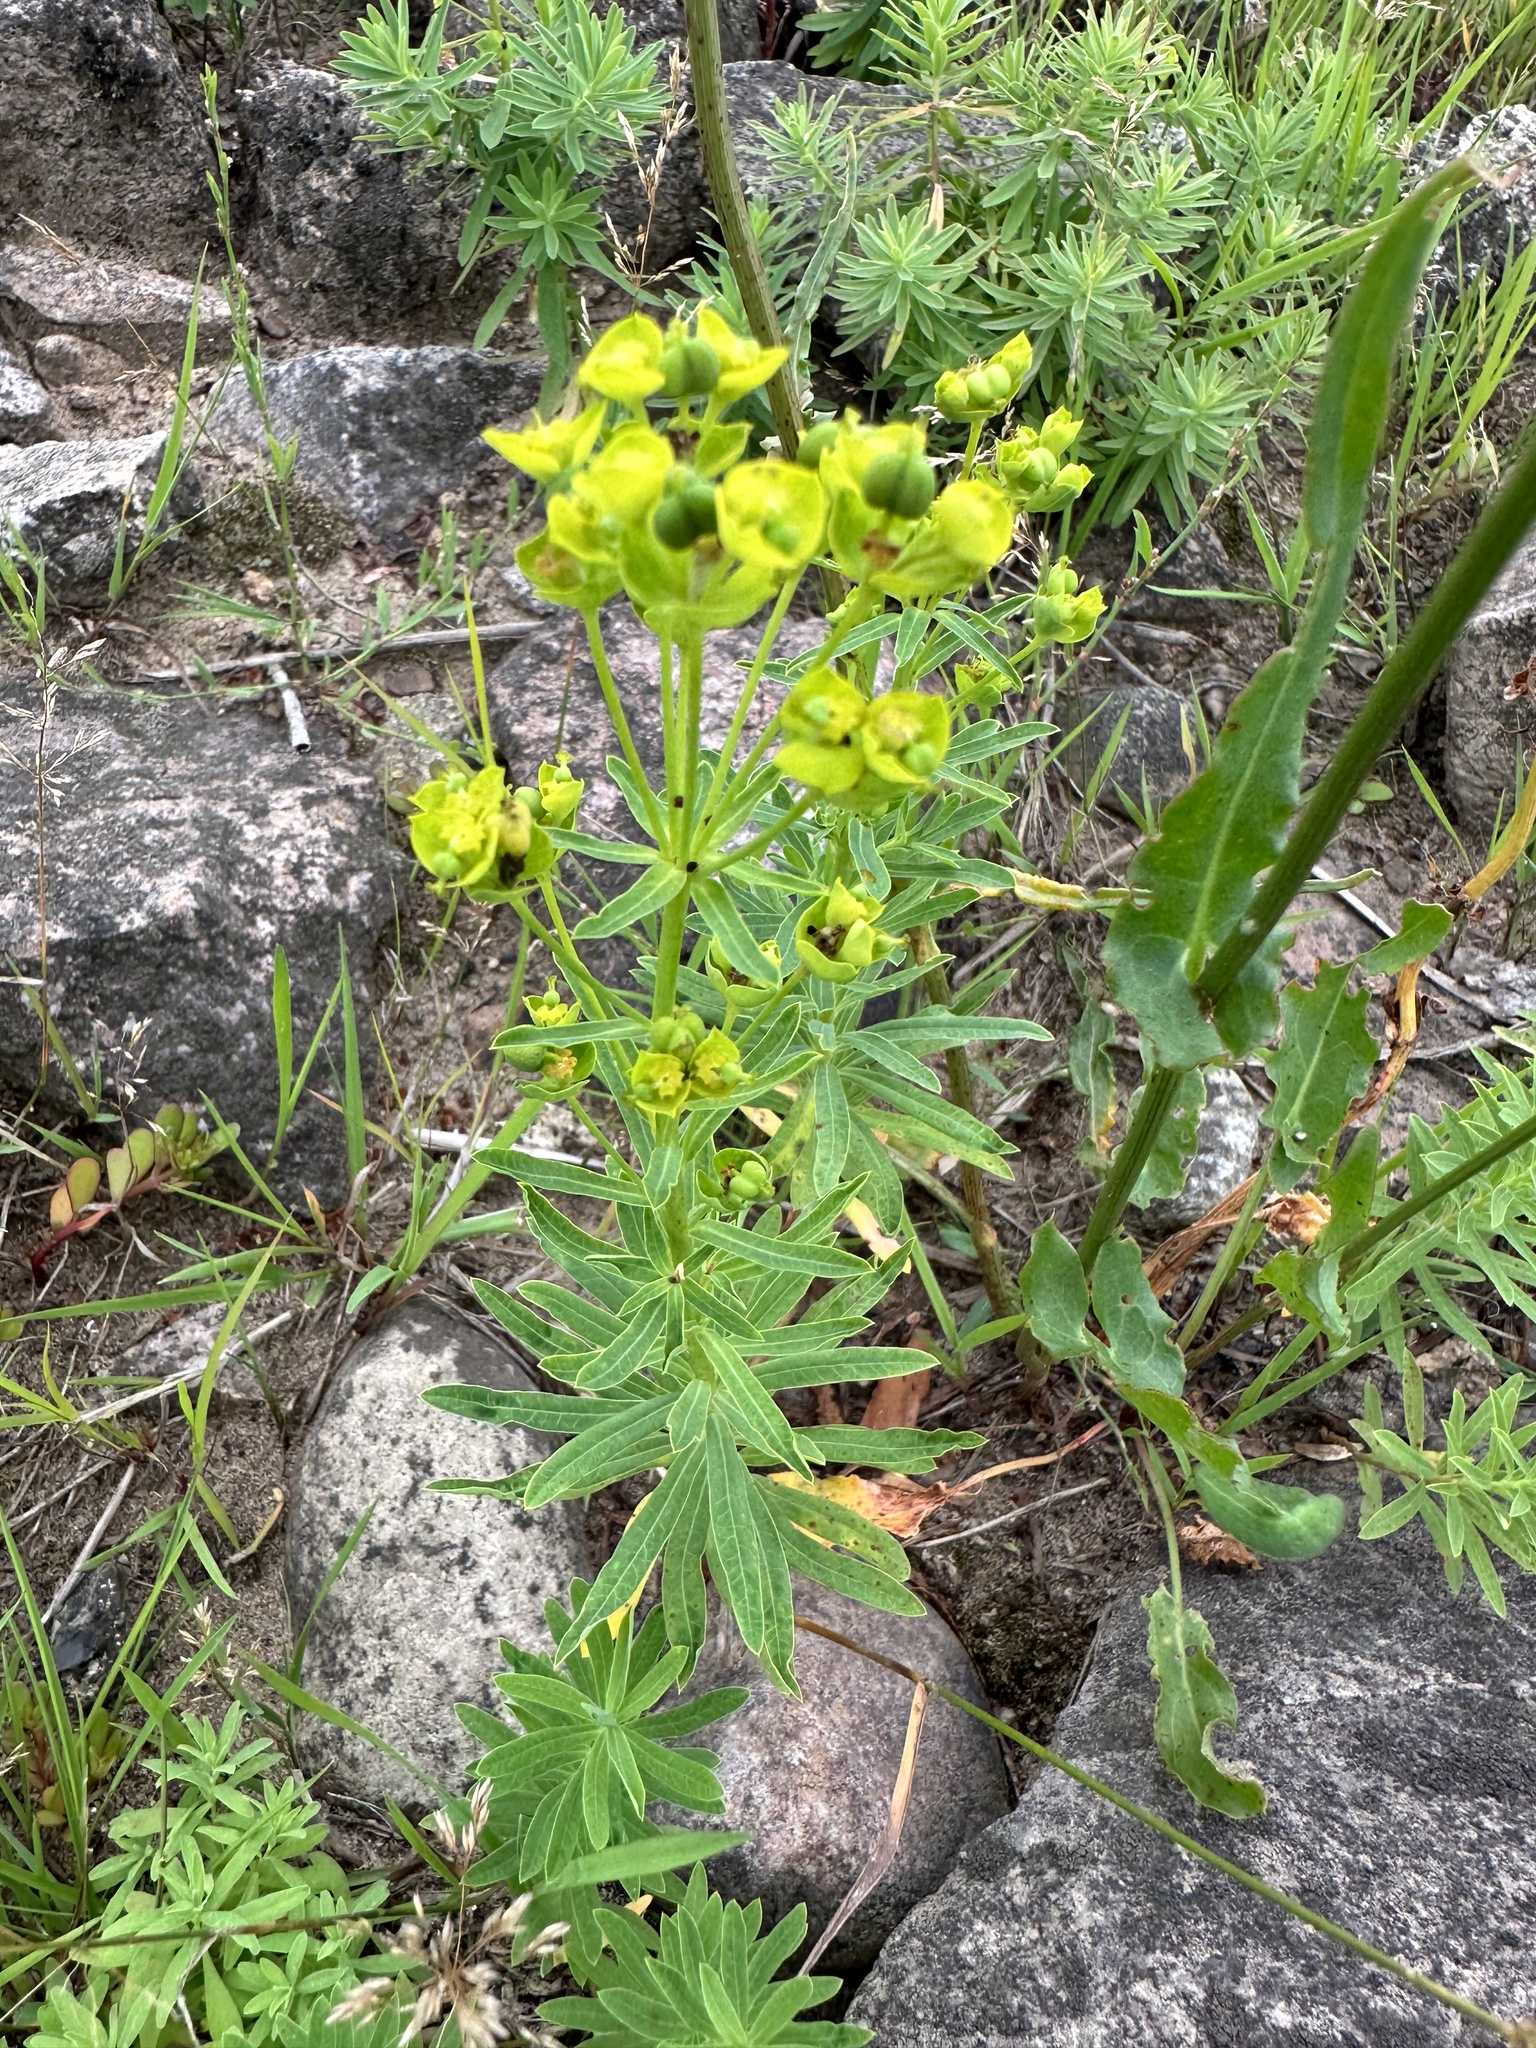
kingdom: Plantae
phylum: Tracheophyta
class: Magnoliopsida
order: Malpighiales
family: Euphorbiaceae
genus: Euphorbia
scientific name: Euphorbia esula
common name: Leafy spurge
